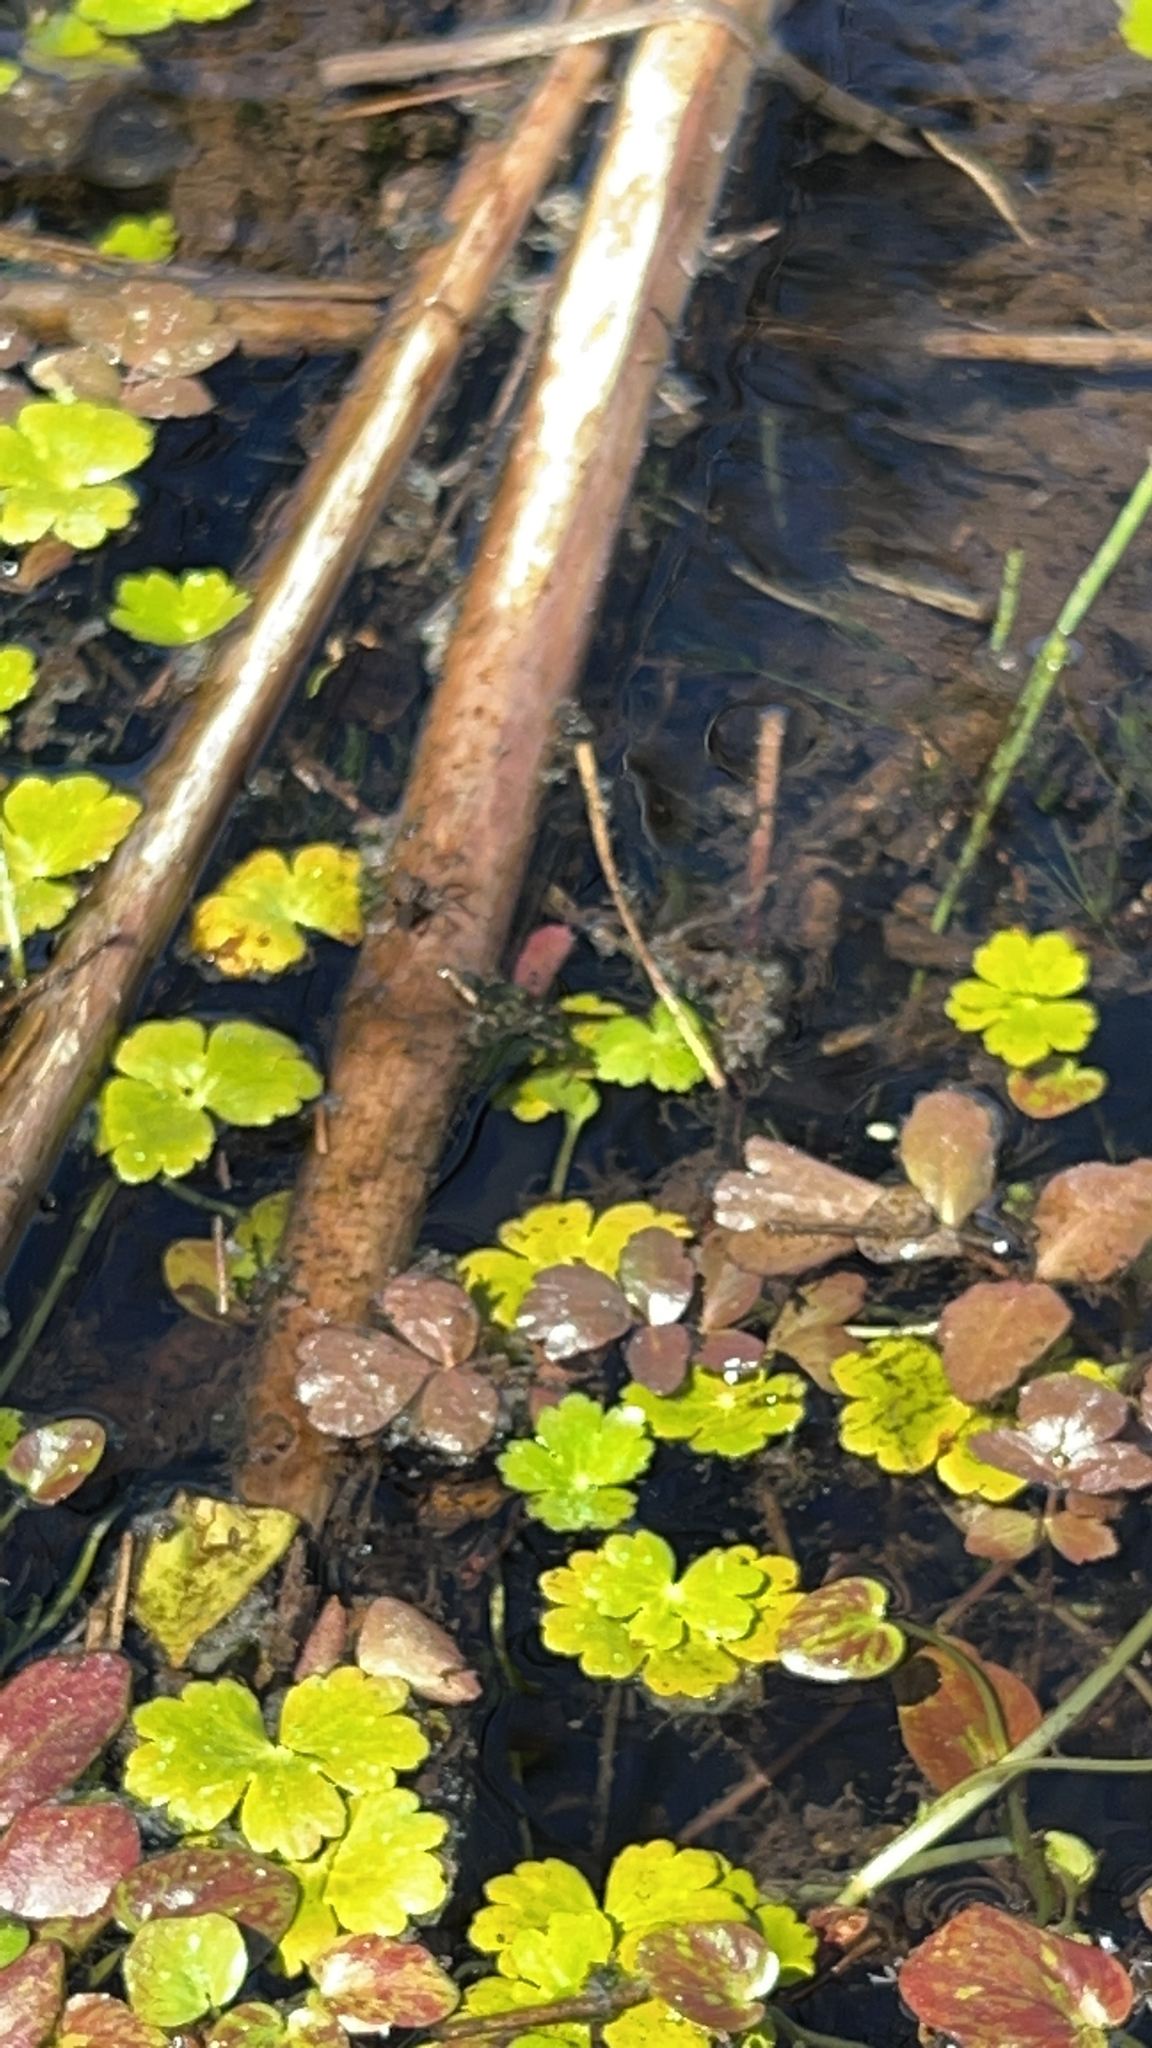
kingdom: Plantae
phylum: Tracheophyta
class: Magnoliopsida
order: Apiales
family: Araliaceae
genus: Hydrocotyle
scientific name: Hydrocotyle ranunculoides
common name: Floating pennywort
